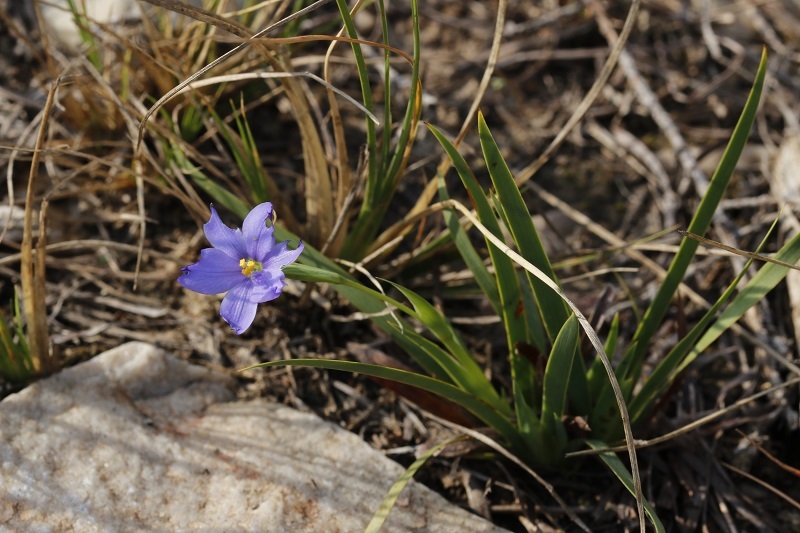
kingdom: Plantae
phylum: Tracheophyta
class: Liliopsida
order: Asparagales
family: Iridaceae
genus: Aristea
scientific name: Aristea pusilla
